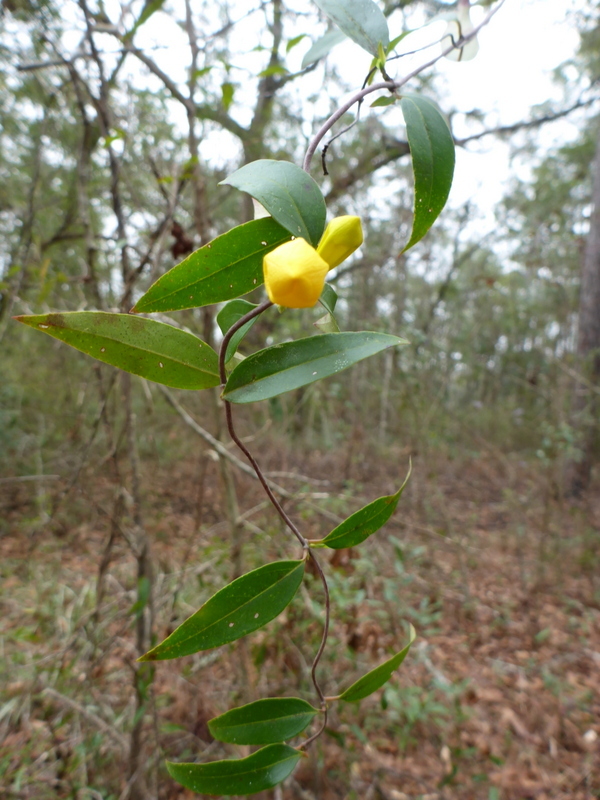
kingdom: Plantae
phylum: Tracheophyta
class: Magnoliopsida
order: Gentianales
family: Gelsemiaceae
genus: Gelsemium
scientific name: Gelsemium sempervirens
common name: Carolina-jasmine
